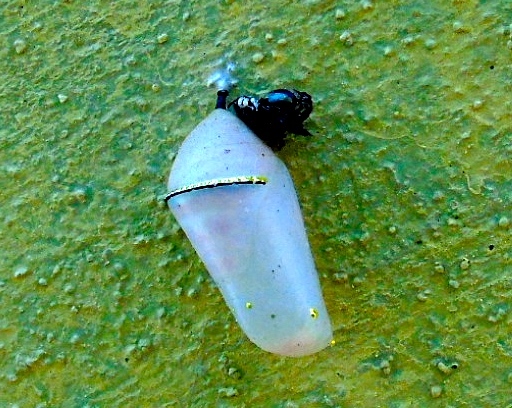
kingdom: Animalia
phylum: Arthropoda
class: Insecta
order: Lepidoptera
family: Nymphalidae
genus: Danaus
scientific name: Danaus
